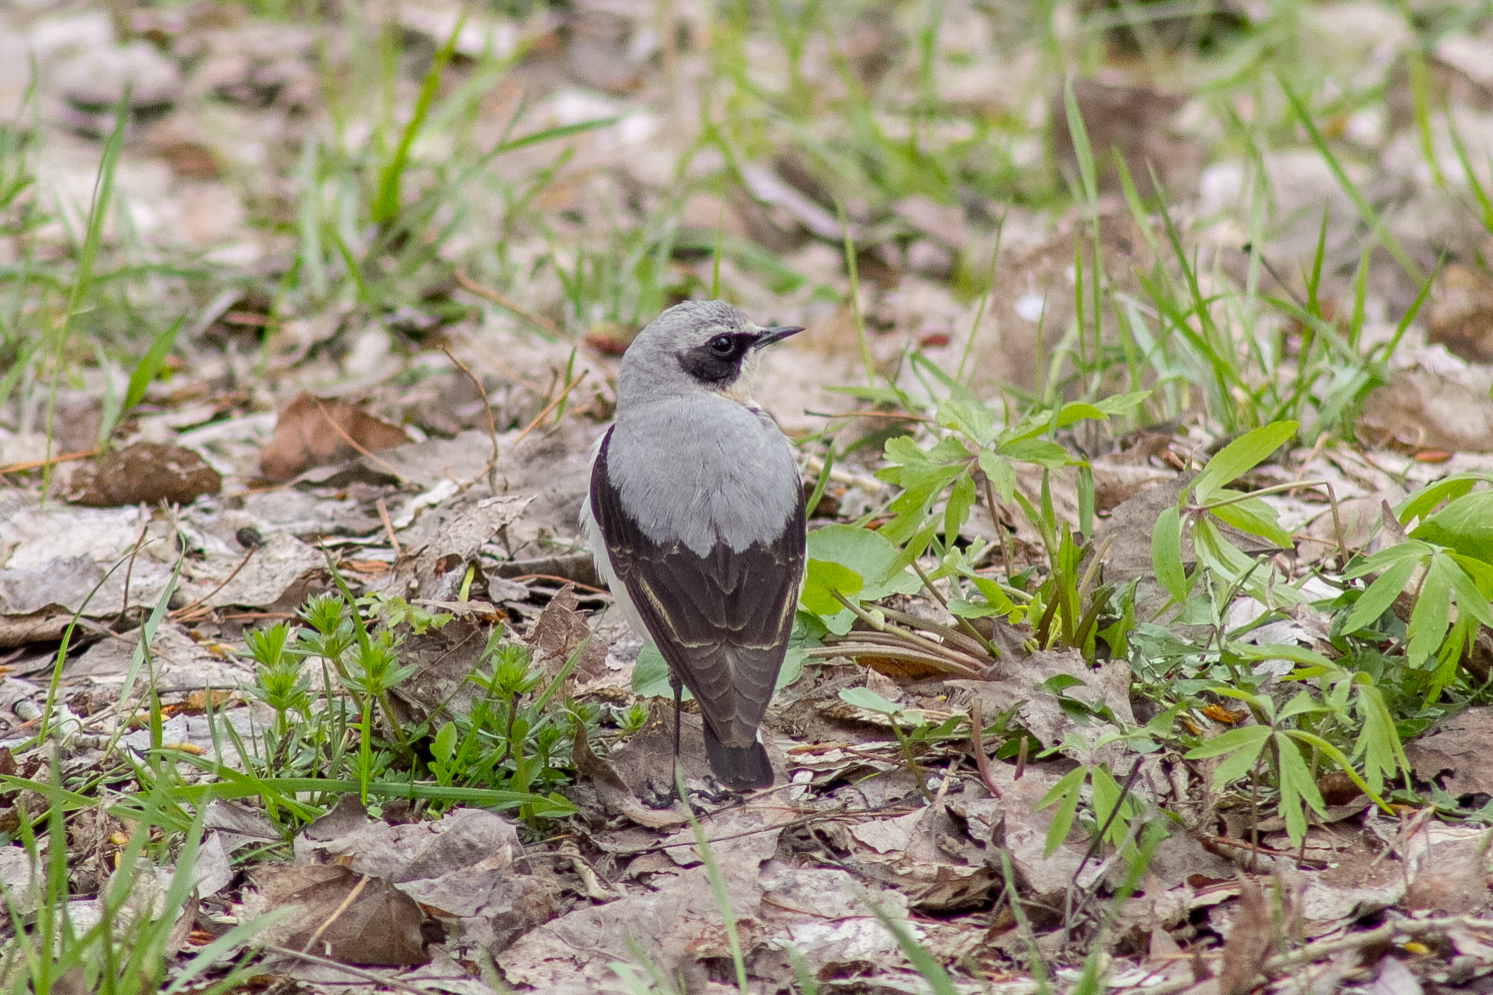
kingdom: Animalia
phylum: Chordata
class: Aves
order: Passeriformes
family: Muscicapidae
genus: Oenanthe
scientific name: Oenanthe oenanthe
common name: Northern wheatear
